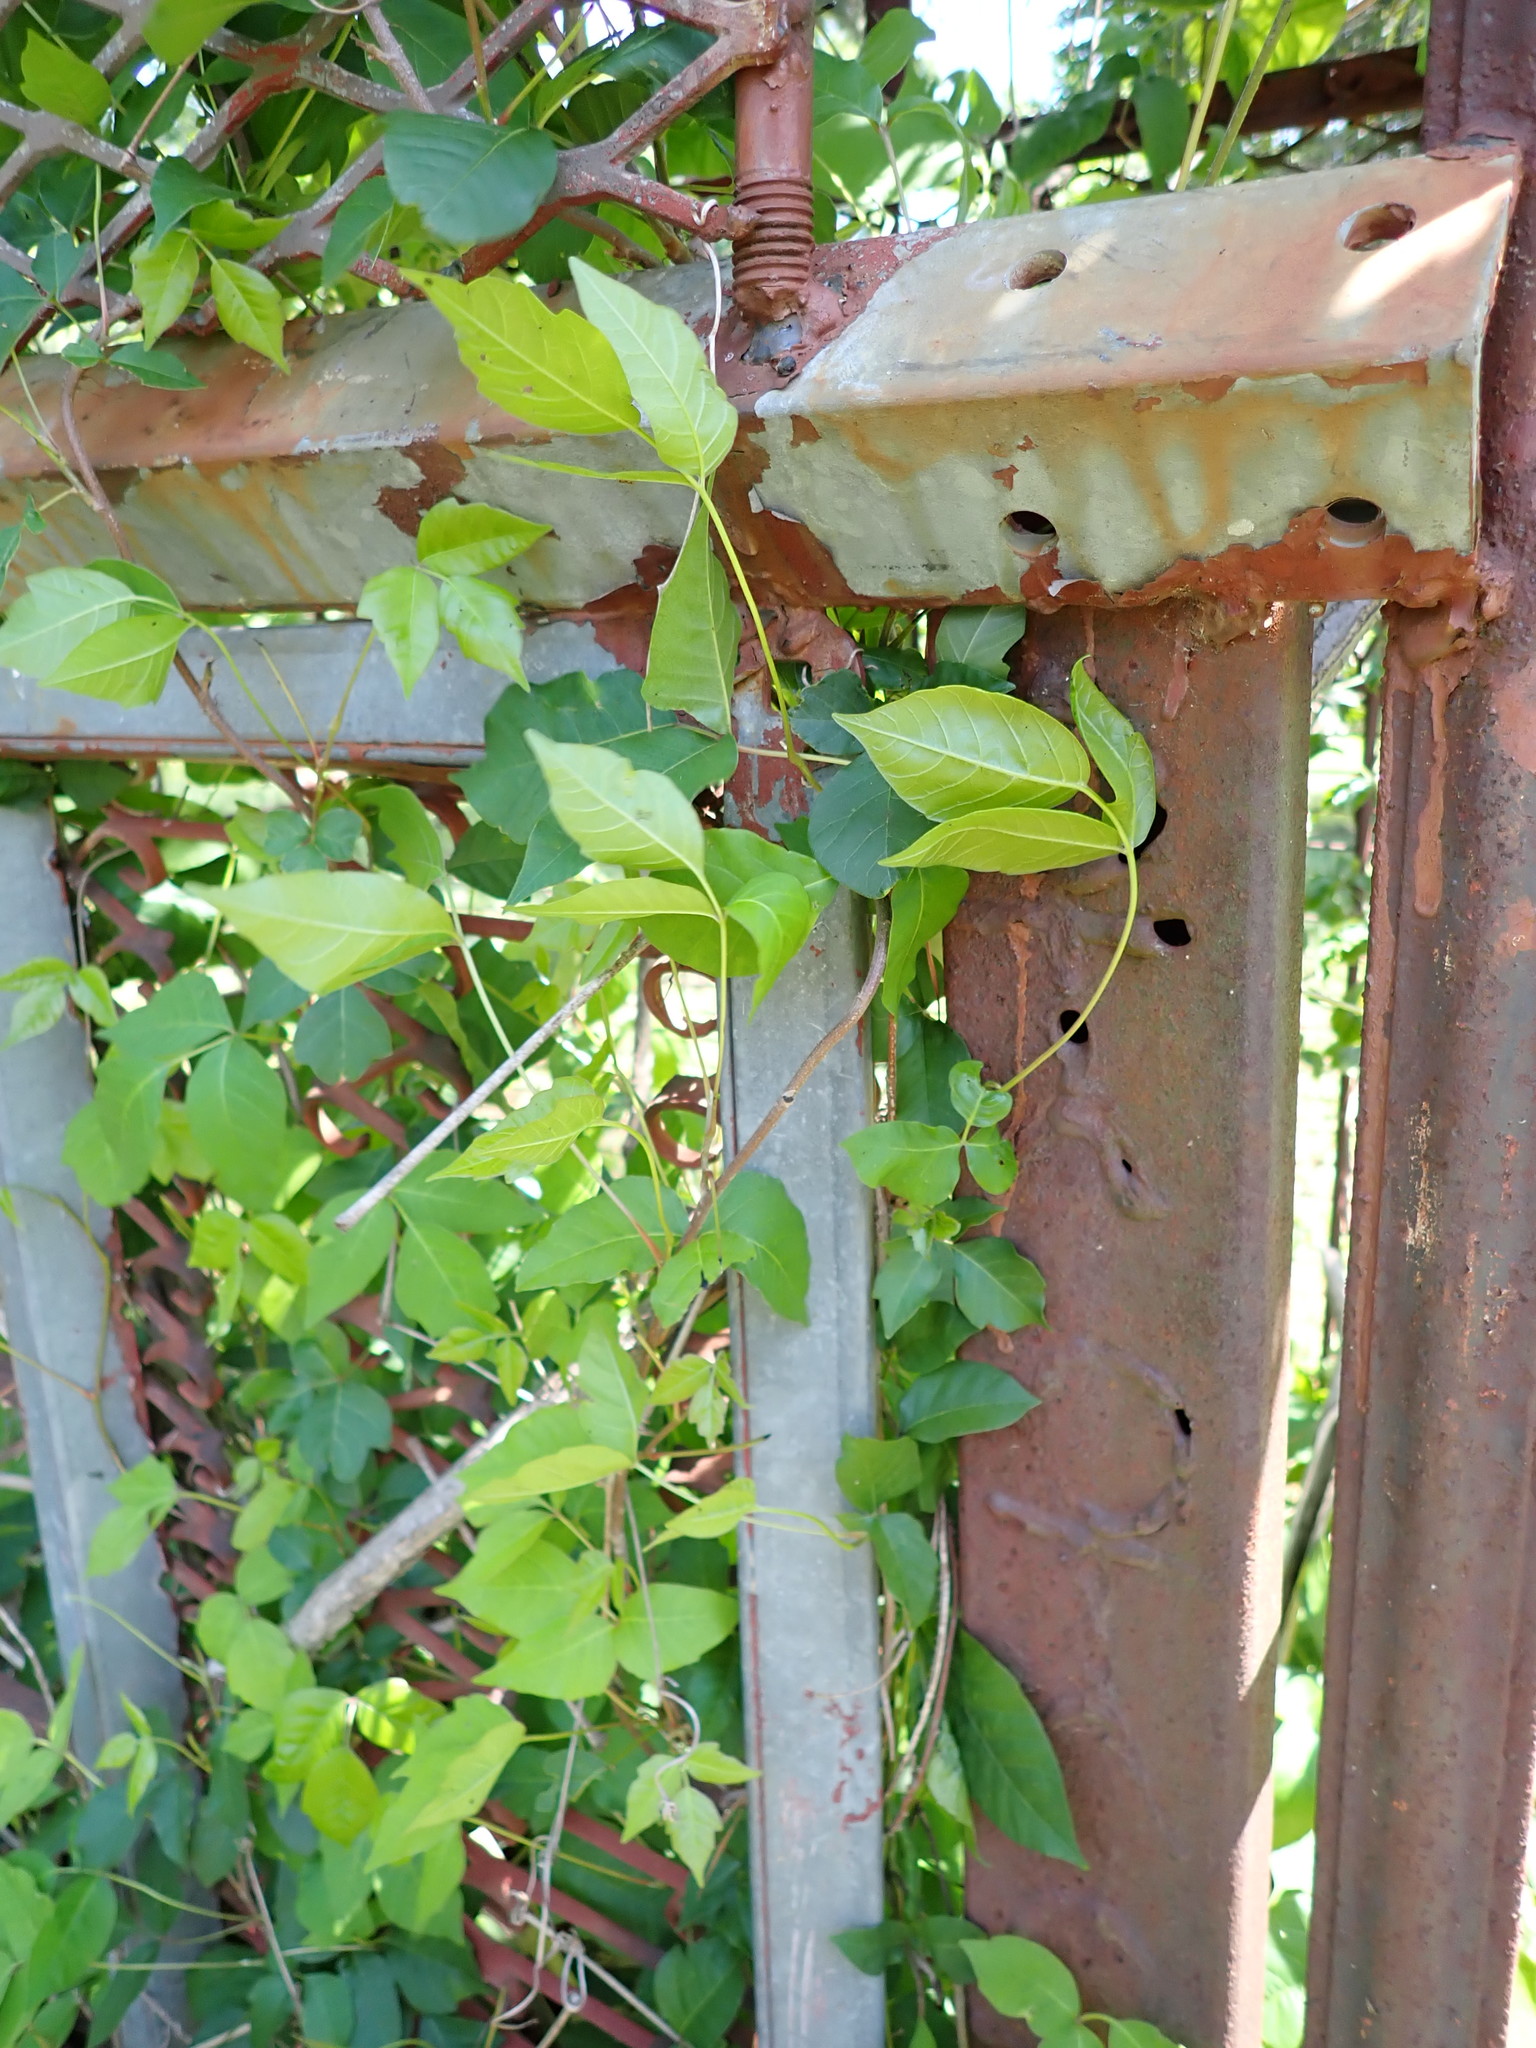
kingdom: Plantae
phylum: Tracheophyta
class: Magnoliopsida
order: Sapindales
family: Anacardiaceae
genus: Toxicodendron
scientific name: Toxicodendron radicans
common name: Poison ivy
